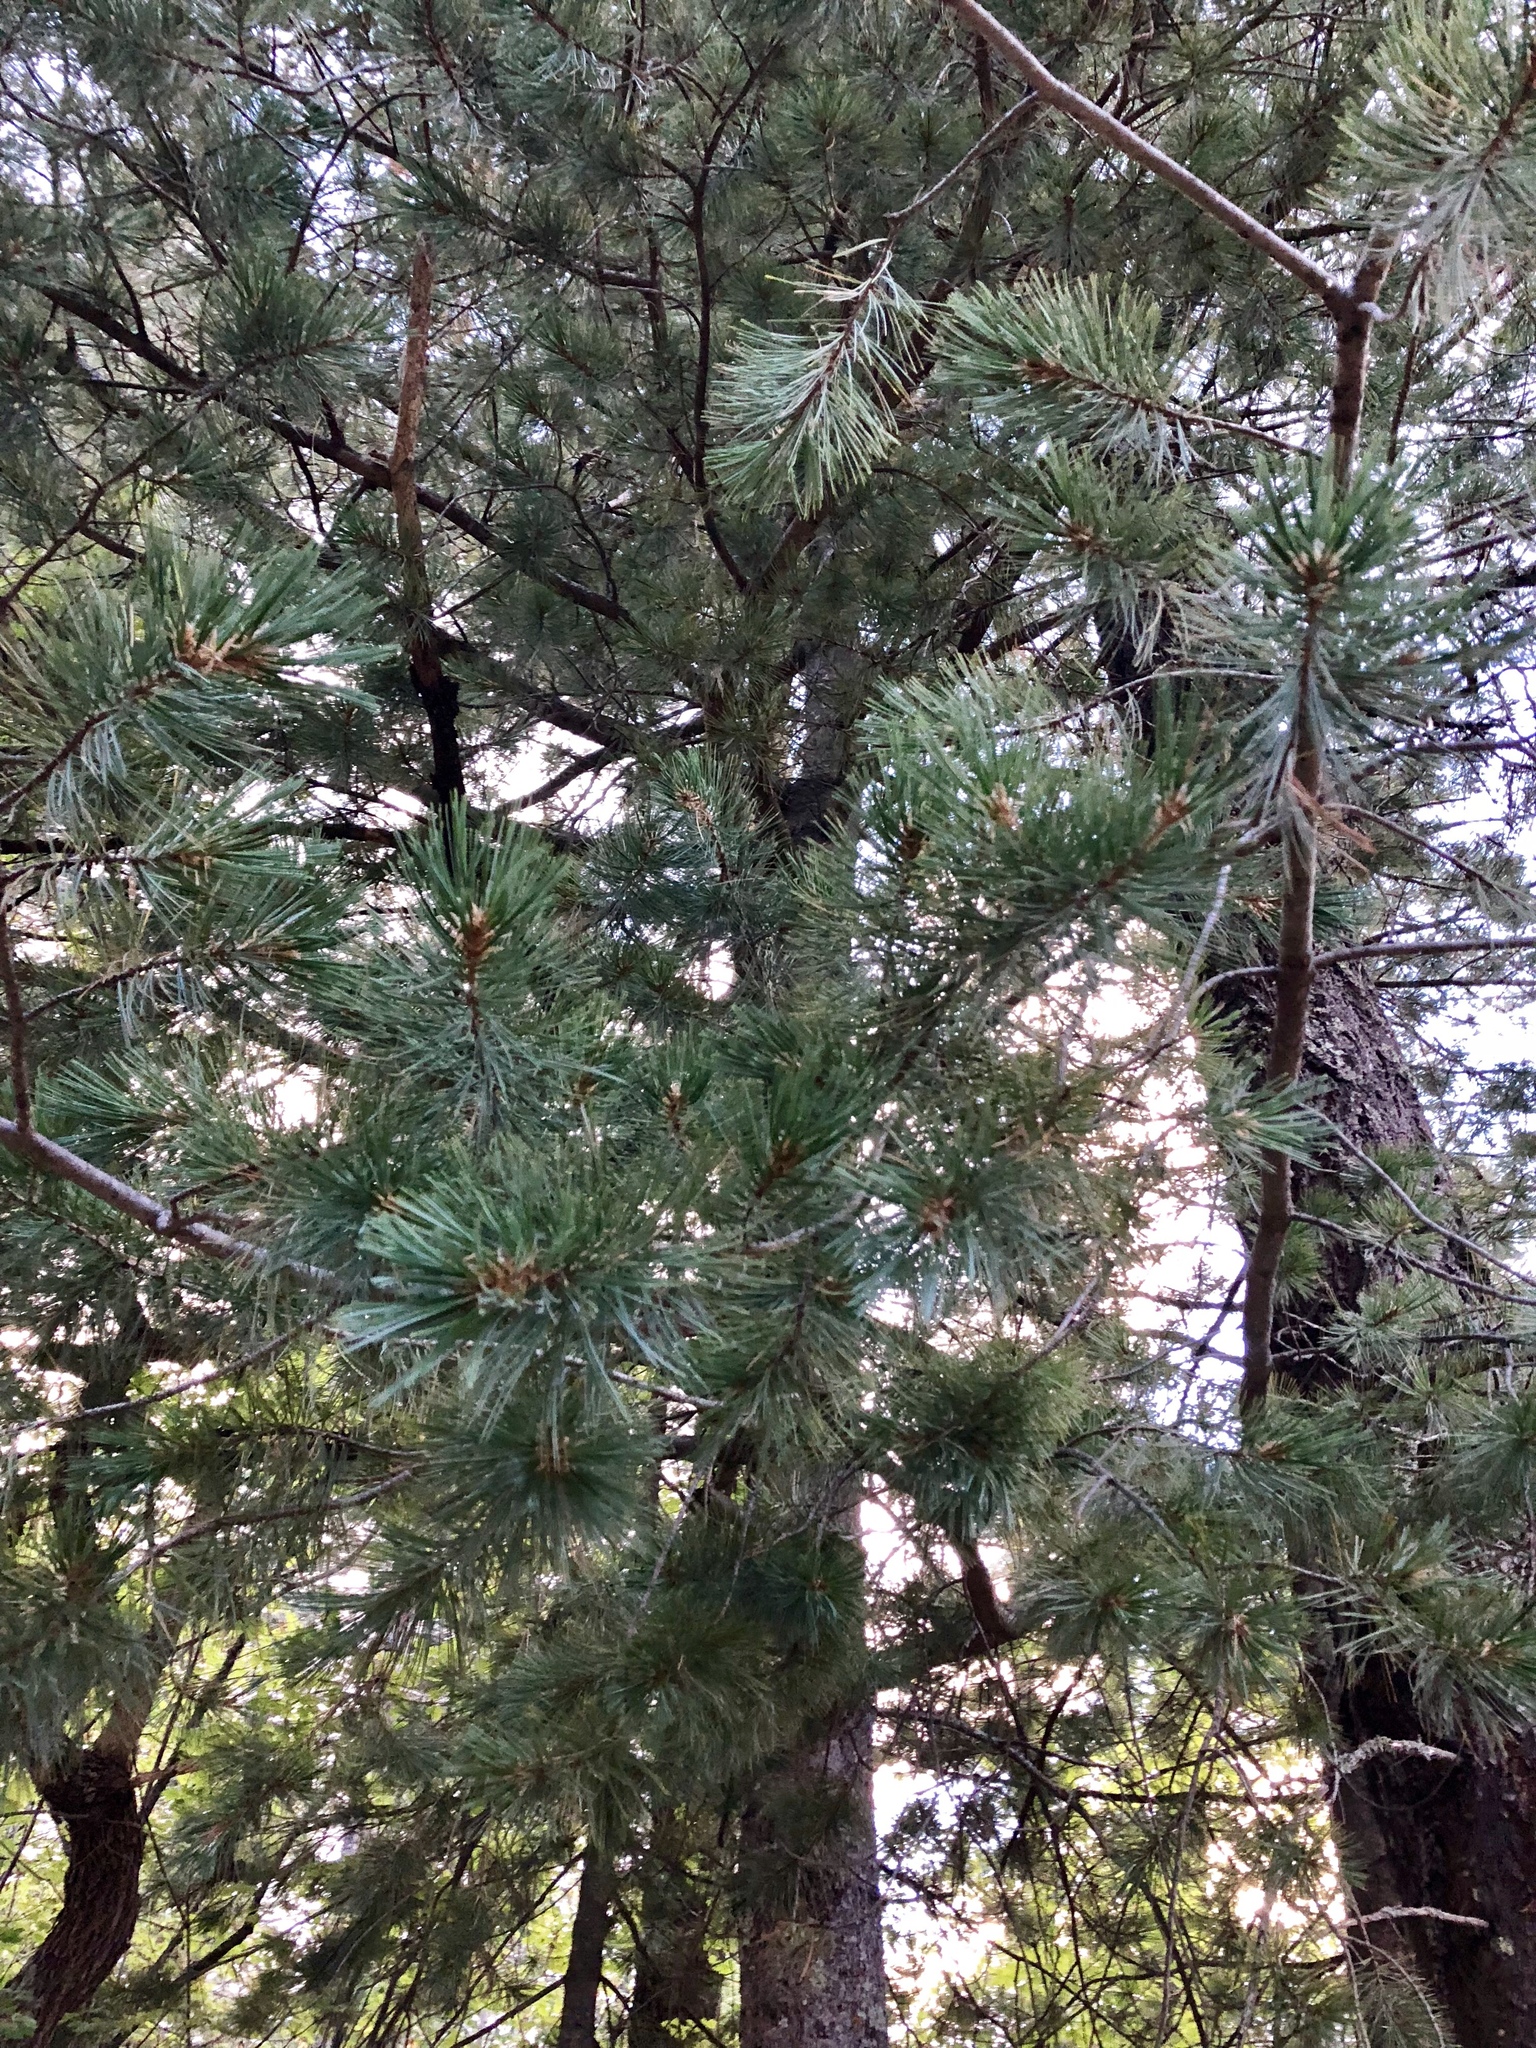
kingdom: Plantae
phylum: Tracheophyta
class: Pinopsida
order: Pinales
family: Pinaceae
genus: Pinus
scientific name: Pinus strobiformis
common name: Southwestern white pine
